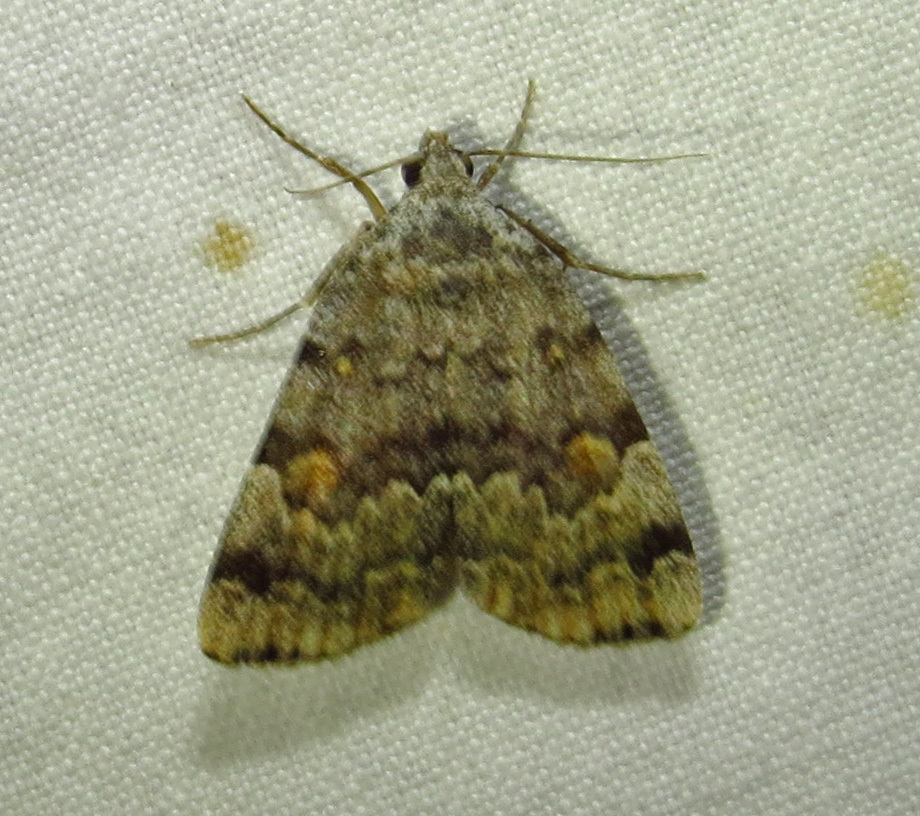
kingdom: Animalia
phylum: Arthropoda
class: Insecta
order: Lepidoptera
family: Erebidae
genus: Idia
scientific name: Idia americalis
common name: American idia moth
